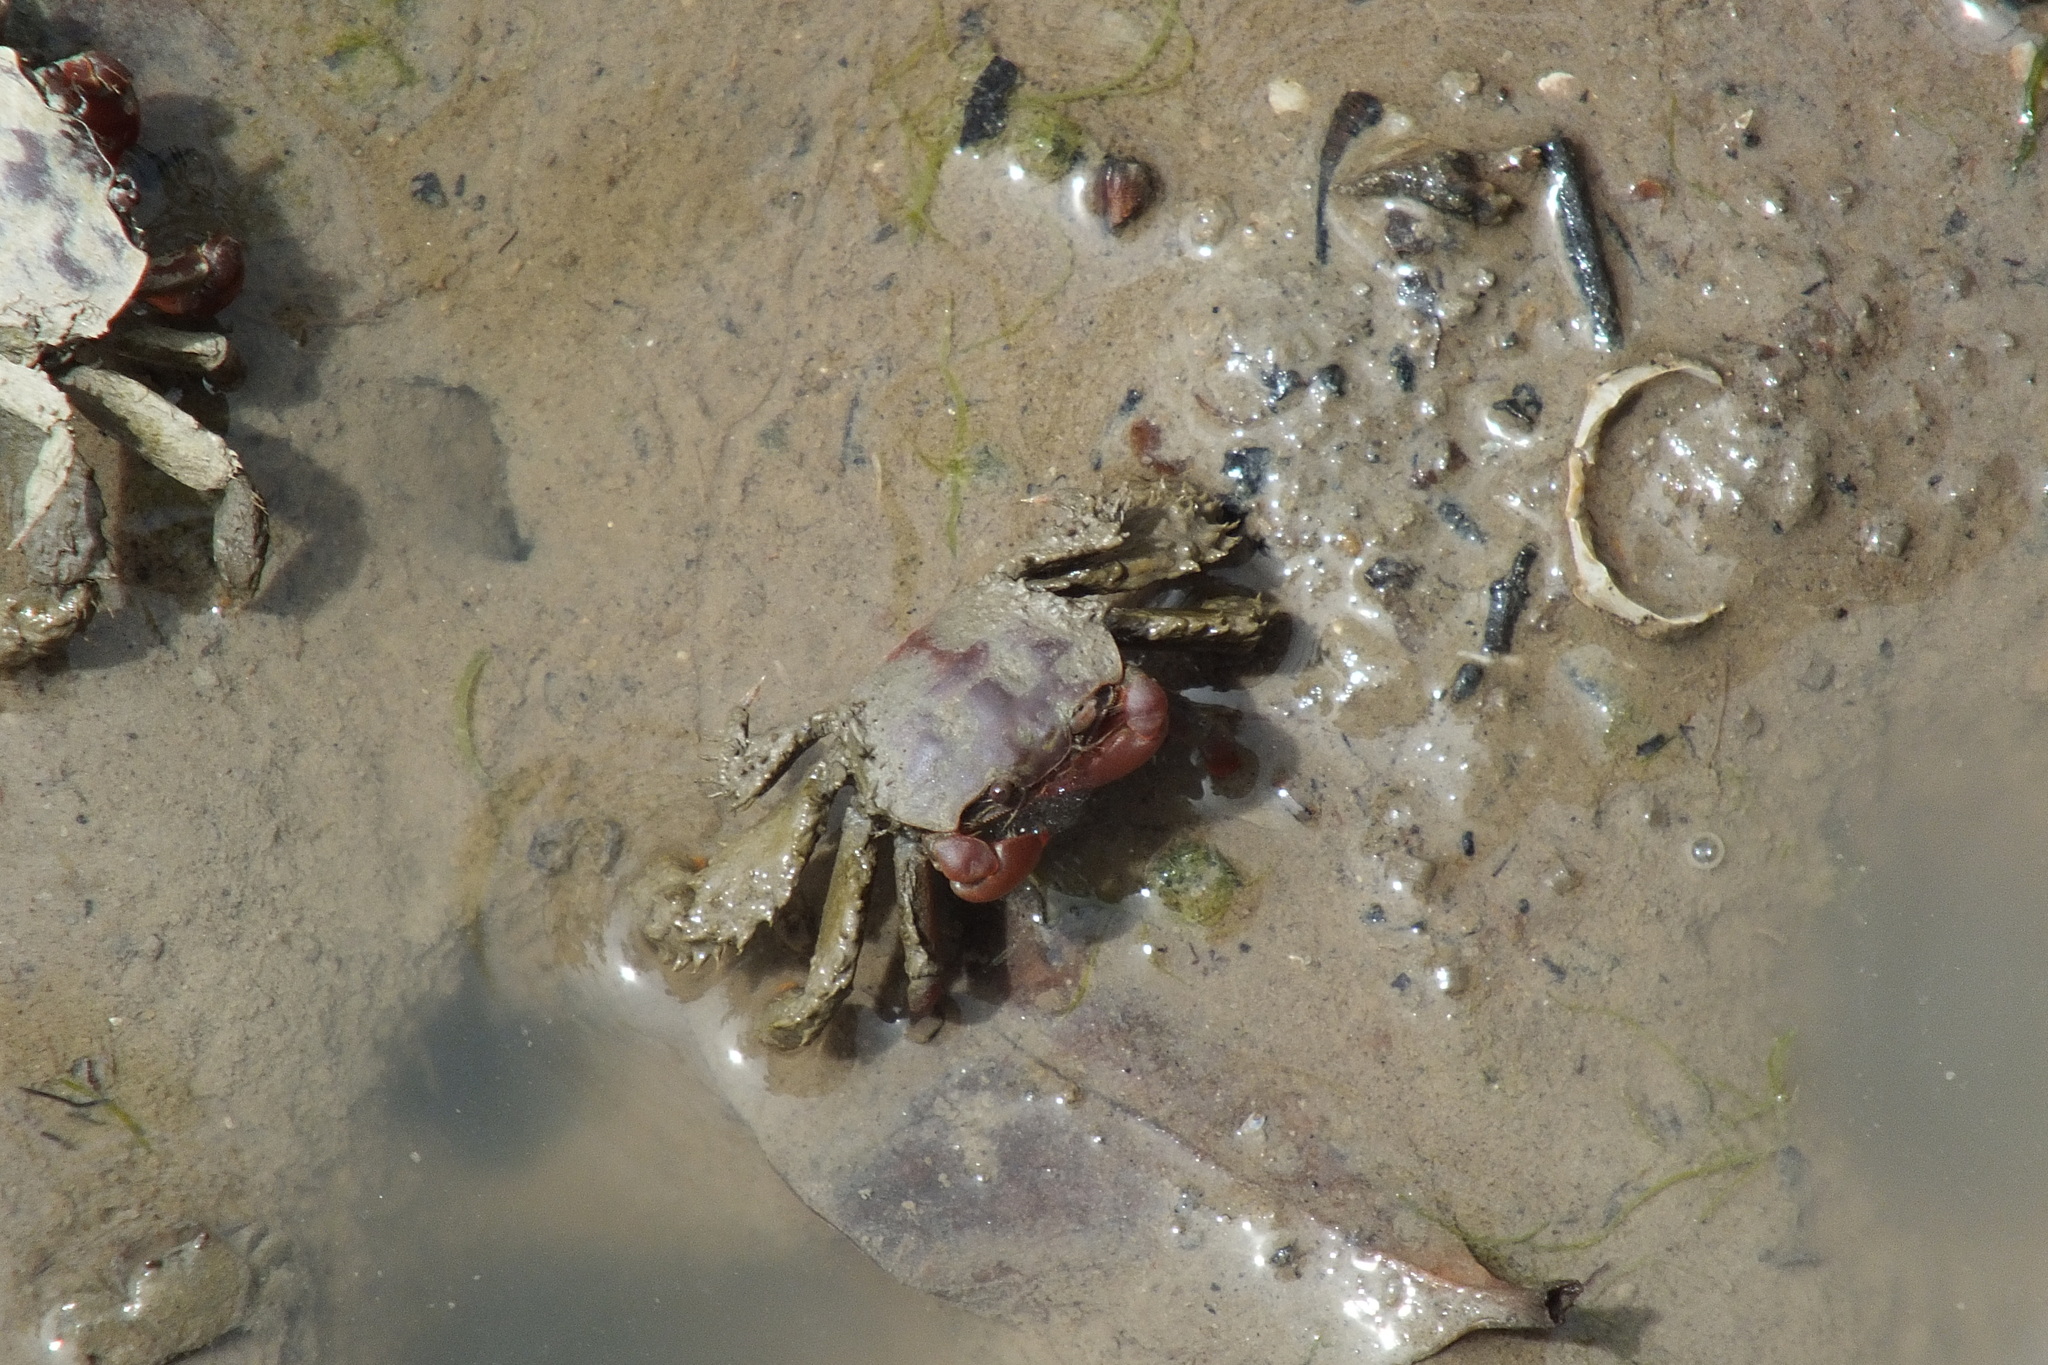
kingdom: Animalia
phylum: Arthropoda
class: Malacostraca
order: Decapoda
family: Camptandriidae
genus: Paracleistostoma
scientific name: Paracleistostoma wardi
